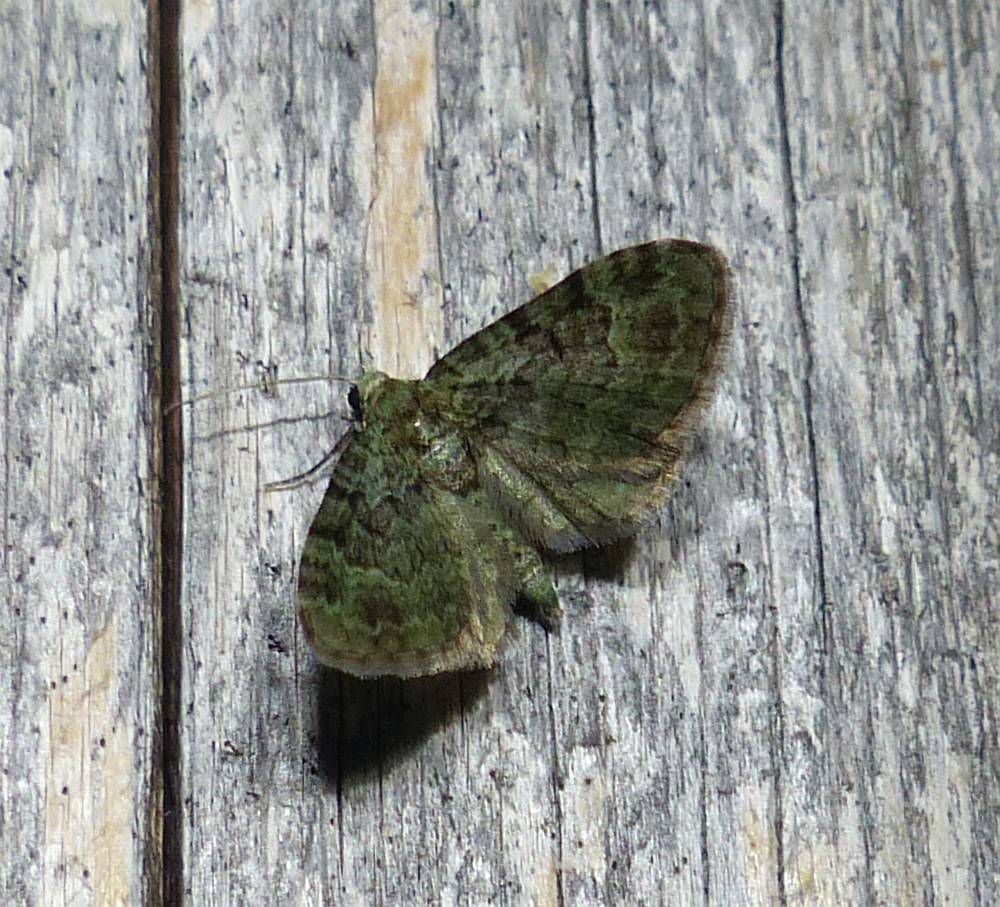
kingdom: Animalia
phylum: Arthropoda
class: Insecta
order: Lepidoptera
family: Geometridae
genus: Pasiphila
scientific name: Pasiphila rectangulata
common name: Green pug
